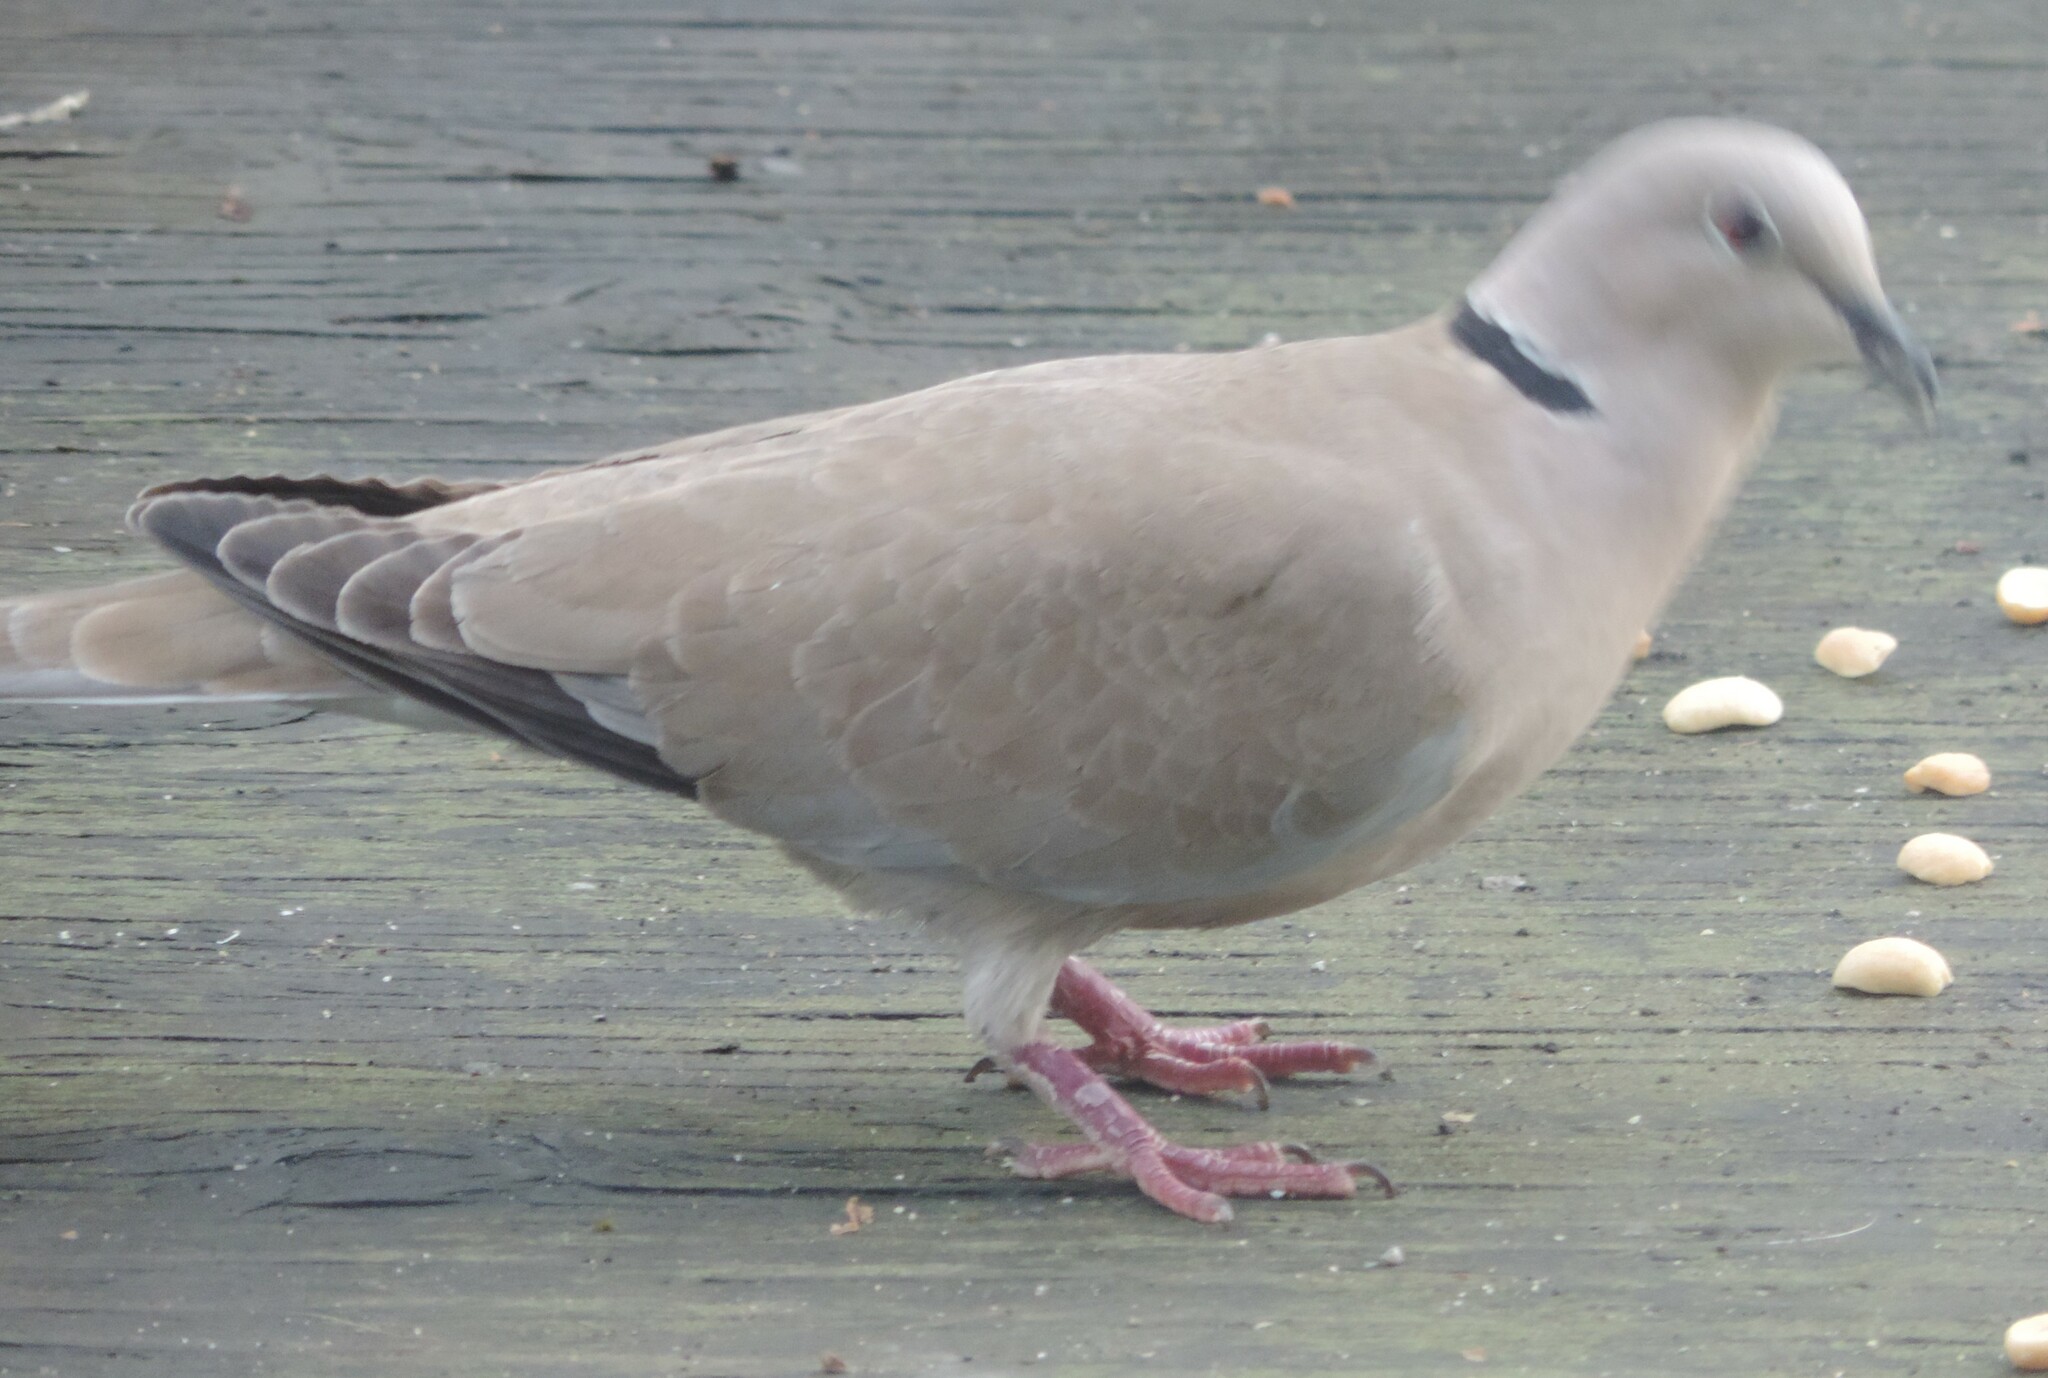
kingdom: Animalia
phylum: Chordata
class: Aves
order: Columbiformes
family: Columbidae
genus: Streptopelia
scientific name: Streptopelia decaocto
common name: Eurasian collared dove
